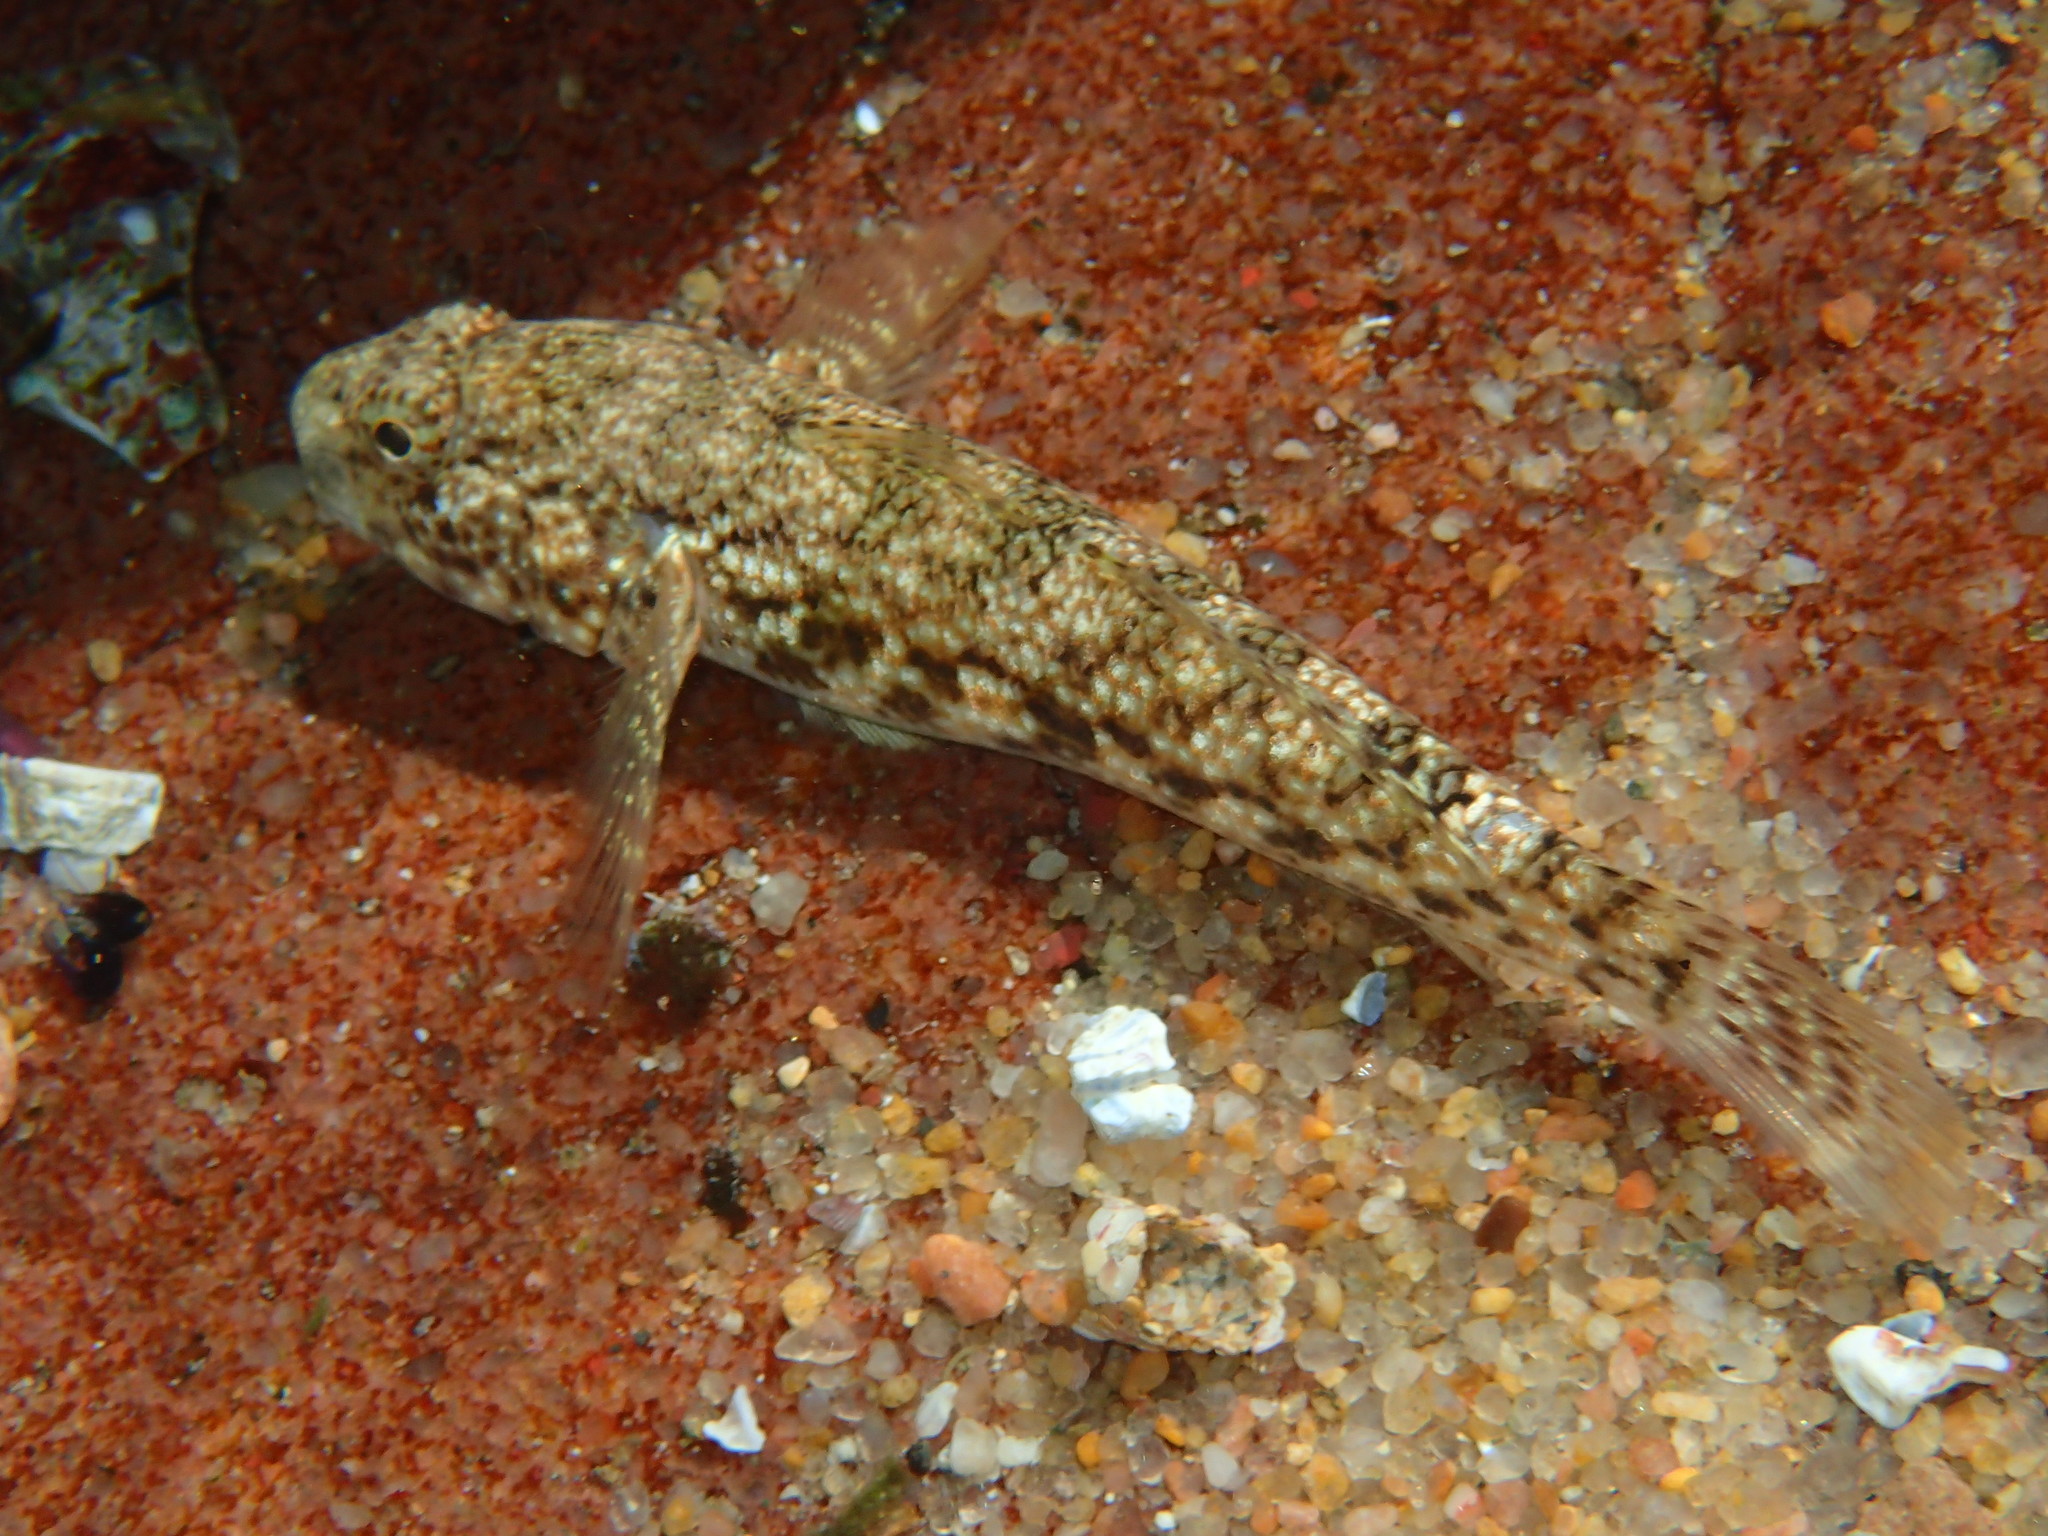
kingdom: Animalia
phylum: Chordata
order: Perciformes
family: Gobiidae
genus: Bathygobius
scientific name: Bathygobius coalitus
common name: Whitespotted goby
